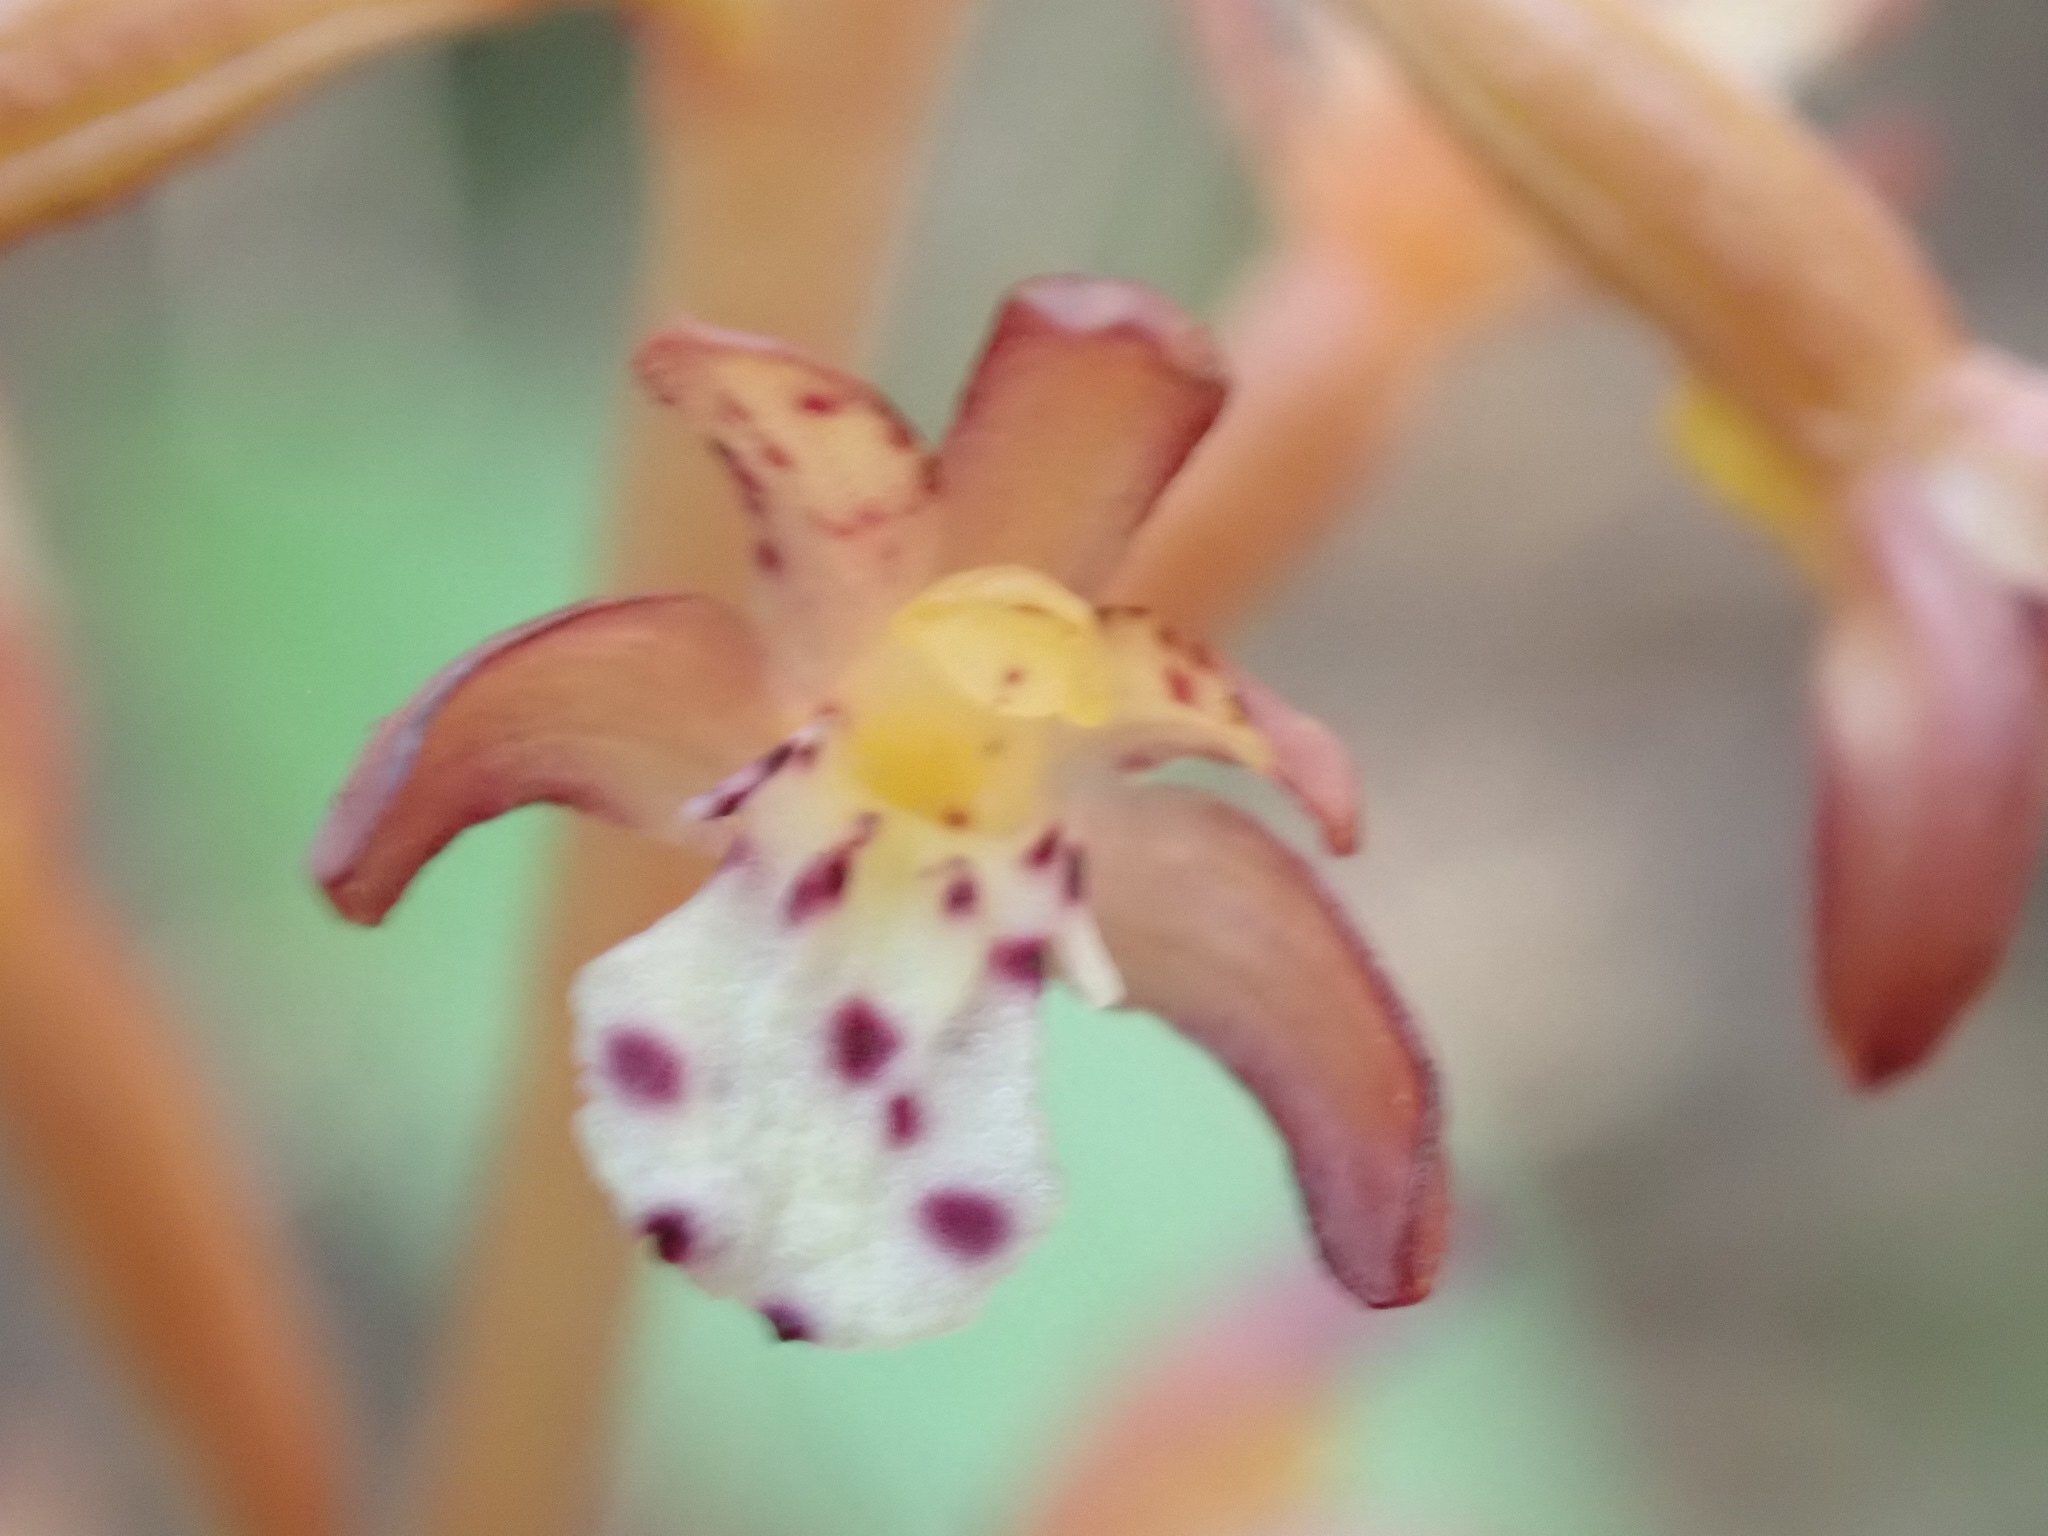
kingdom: Plantae
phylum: Tracheophyta
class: Liliopsida
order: Asparagales
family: Orchidaceae
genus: Corallorhiza
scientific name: Corallorhiza maculata
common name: Spotted coralroot
